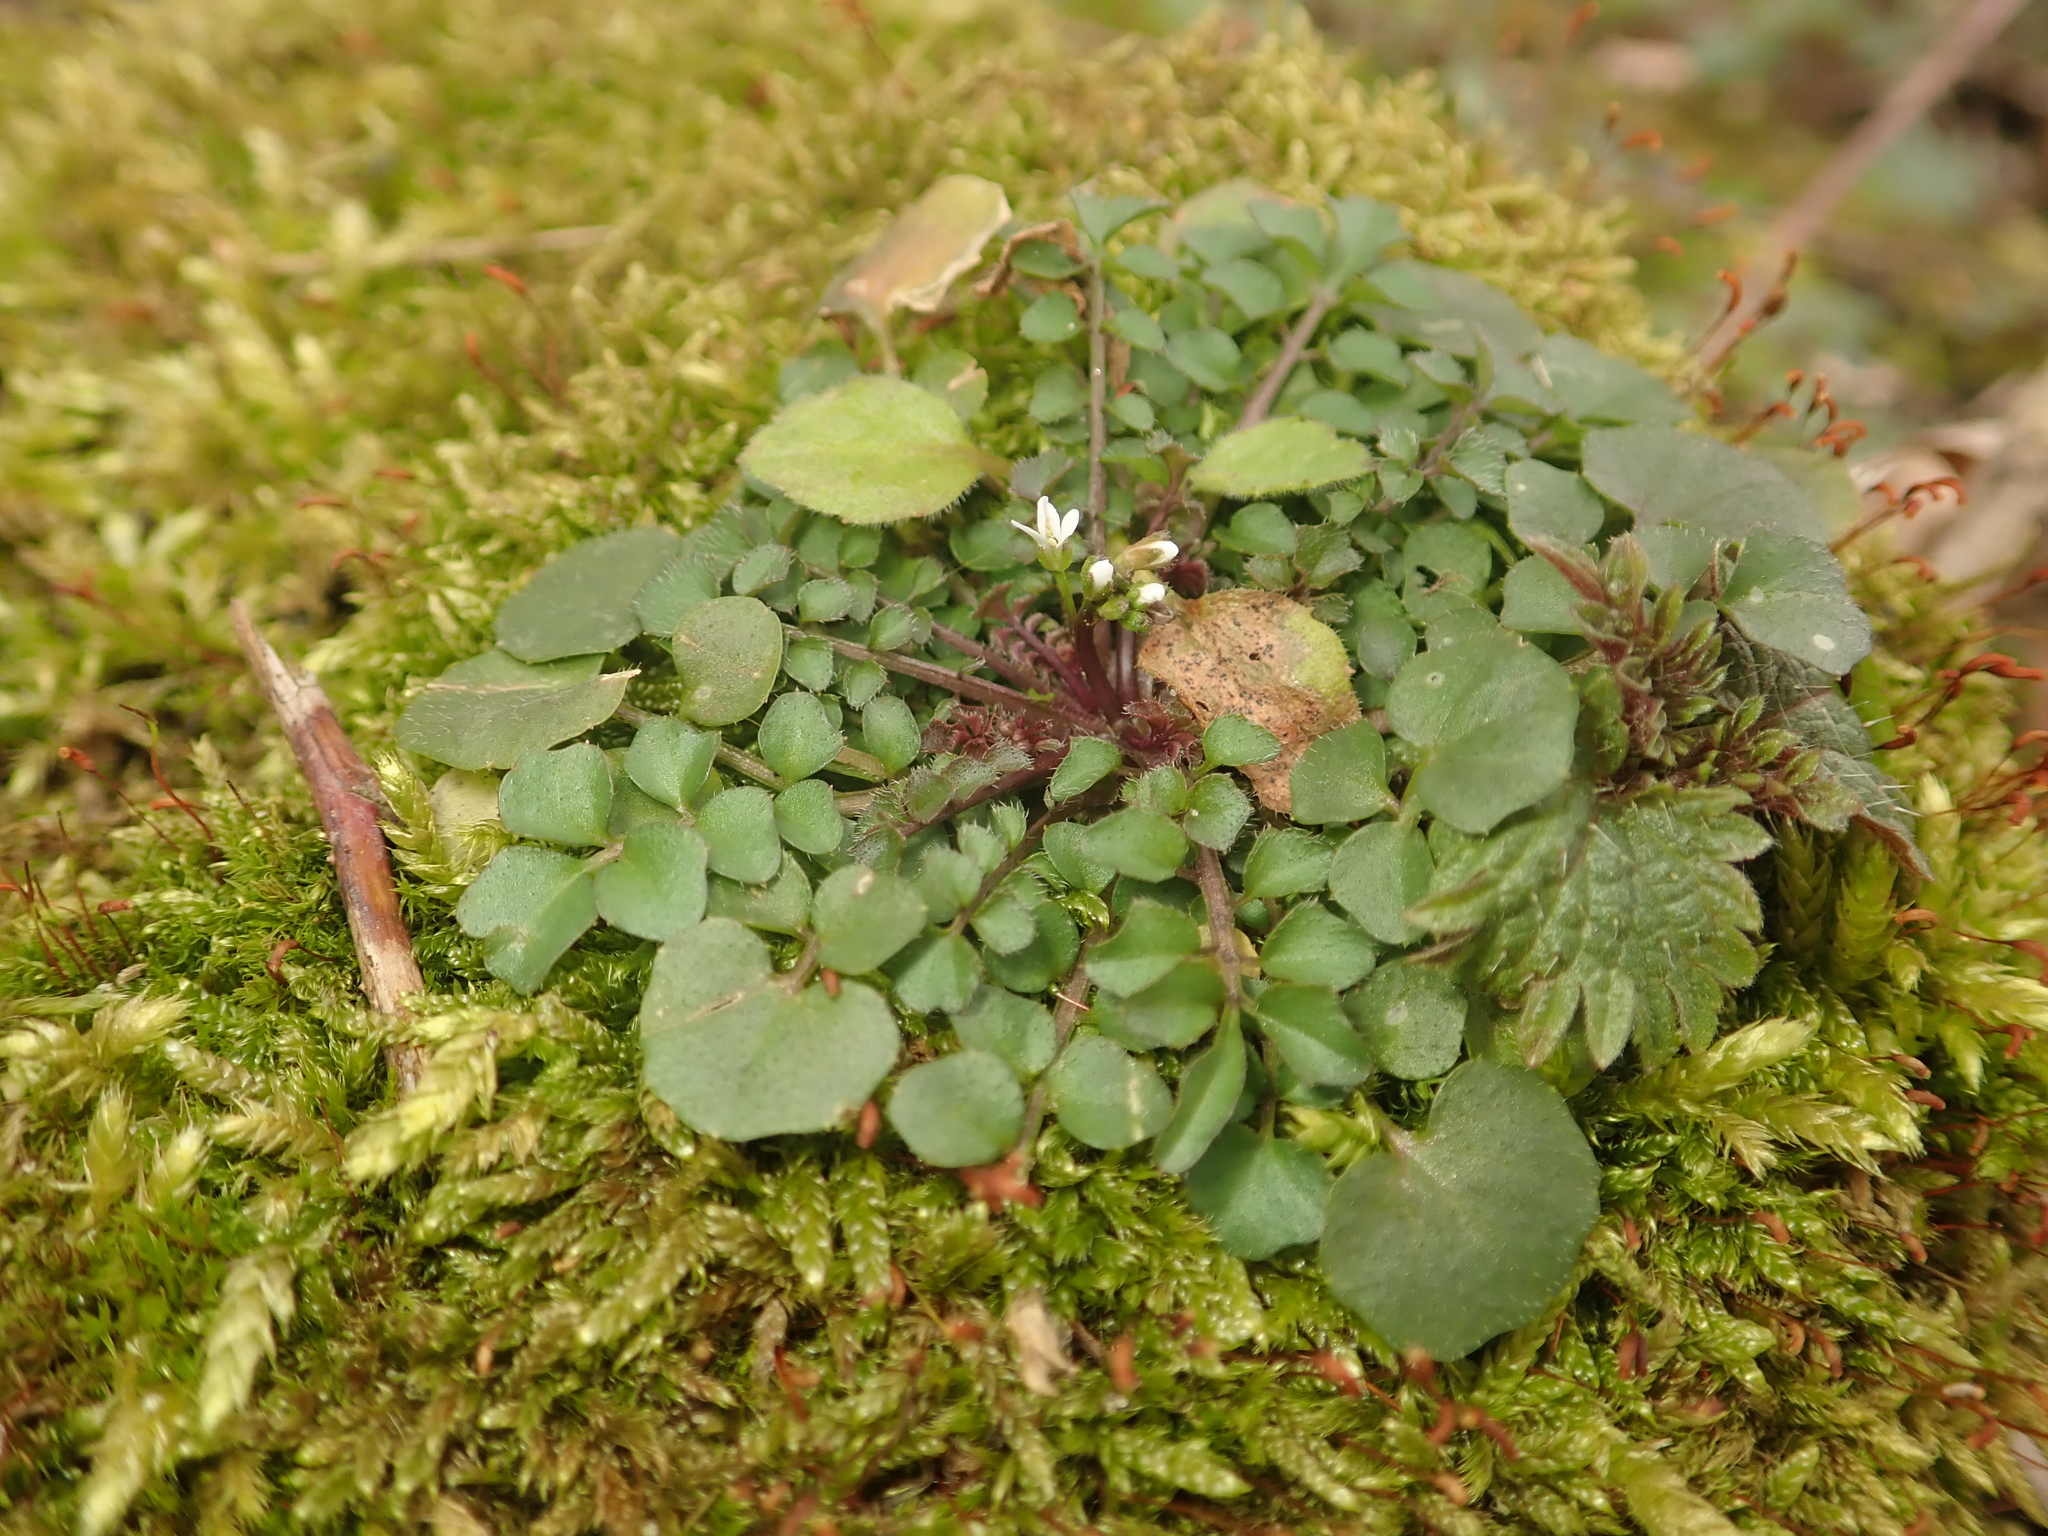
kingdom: Plantae
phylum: Tracheophyta
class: Magnoliopsida
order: Brassicales
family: Brassicaceae
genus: Cardamine
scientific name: Cardamine hirsuta
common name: Hairy bittercress
